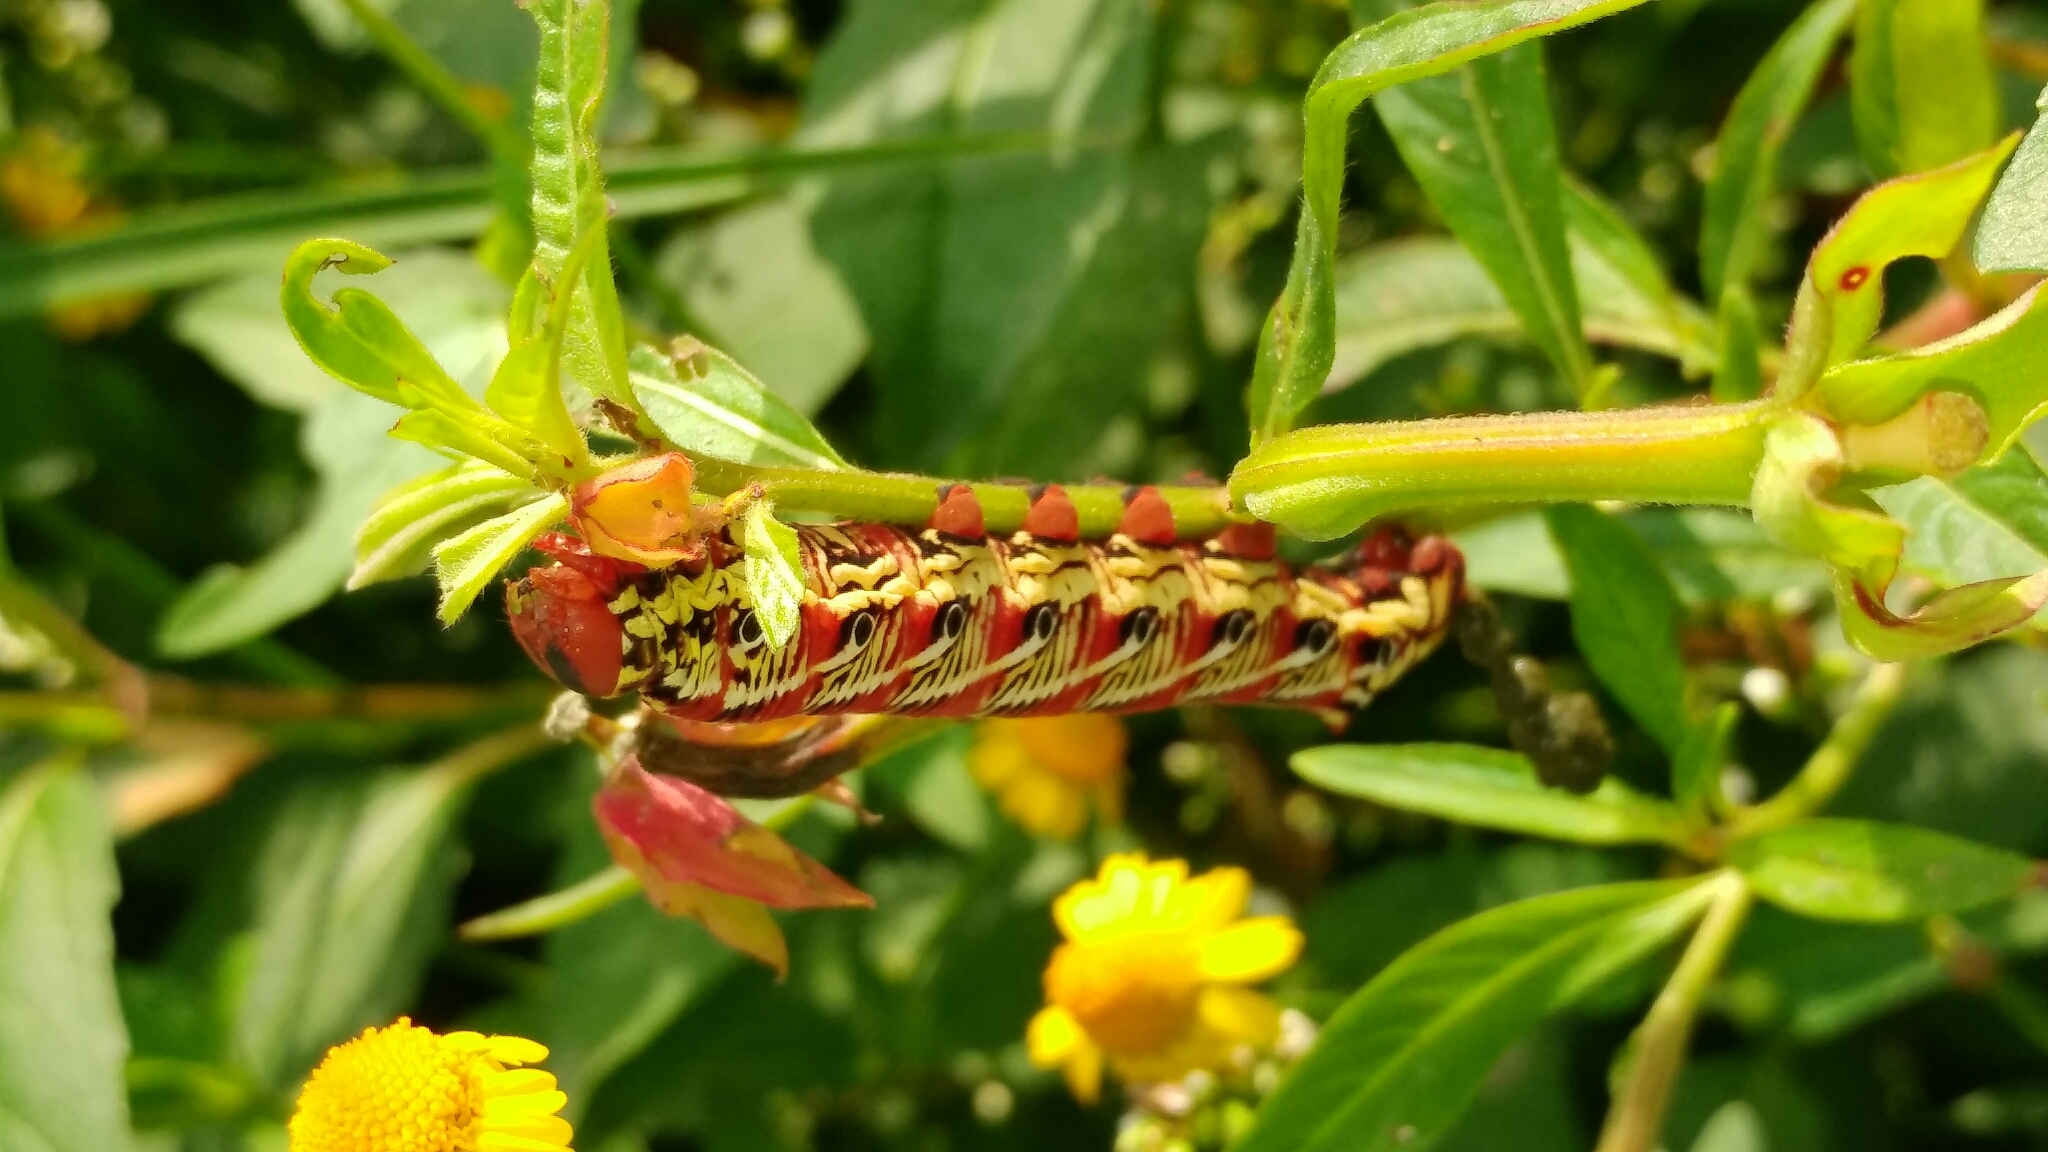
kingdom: Animalia
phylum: Arthropoda
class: Insecta
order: Lepidoptera
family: Sphingidae
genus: Eumorpha
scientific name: Eumorpha fasciatus
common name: Banded sphinx
